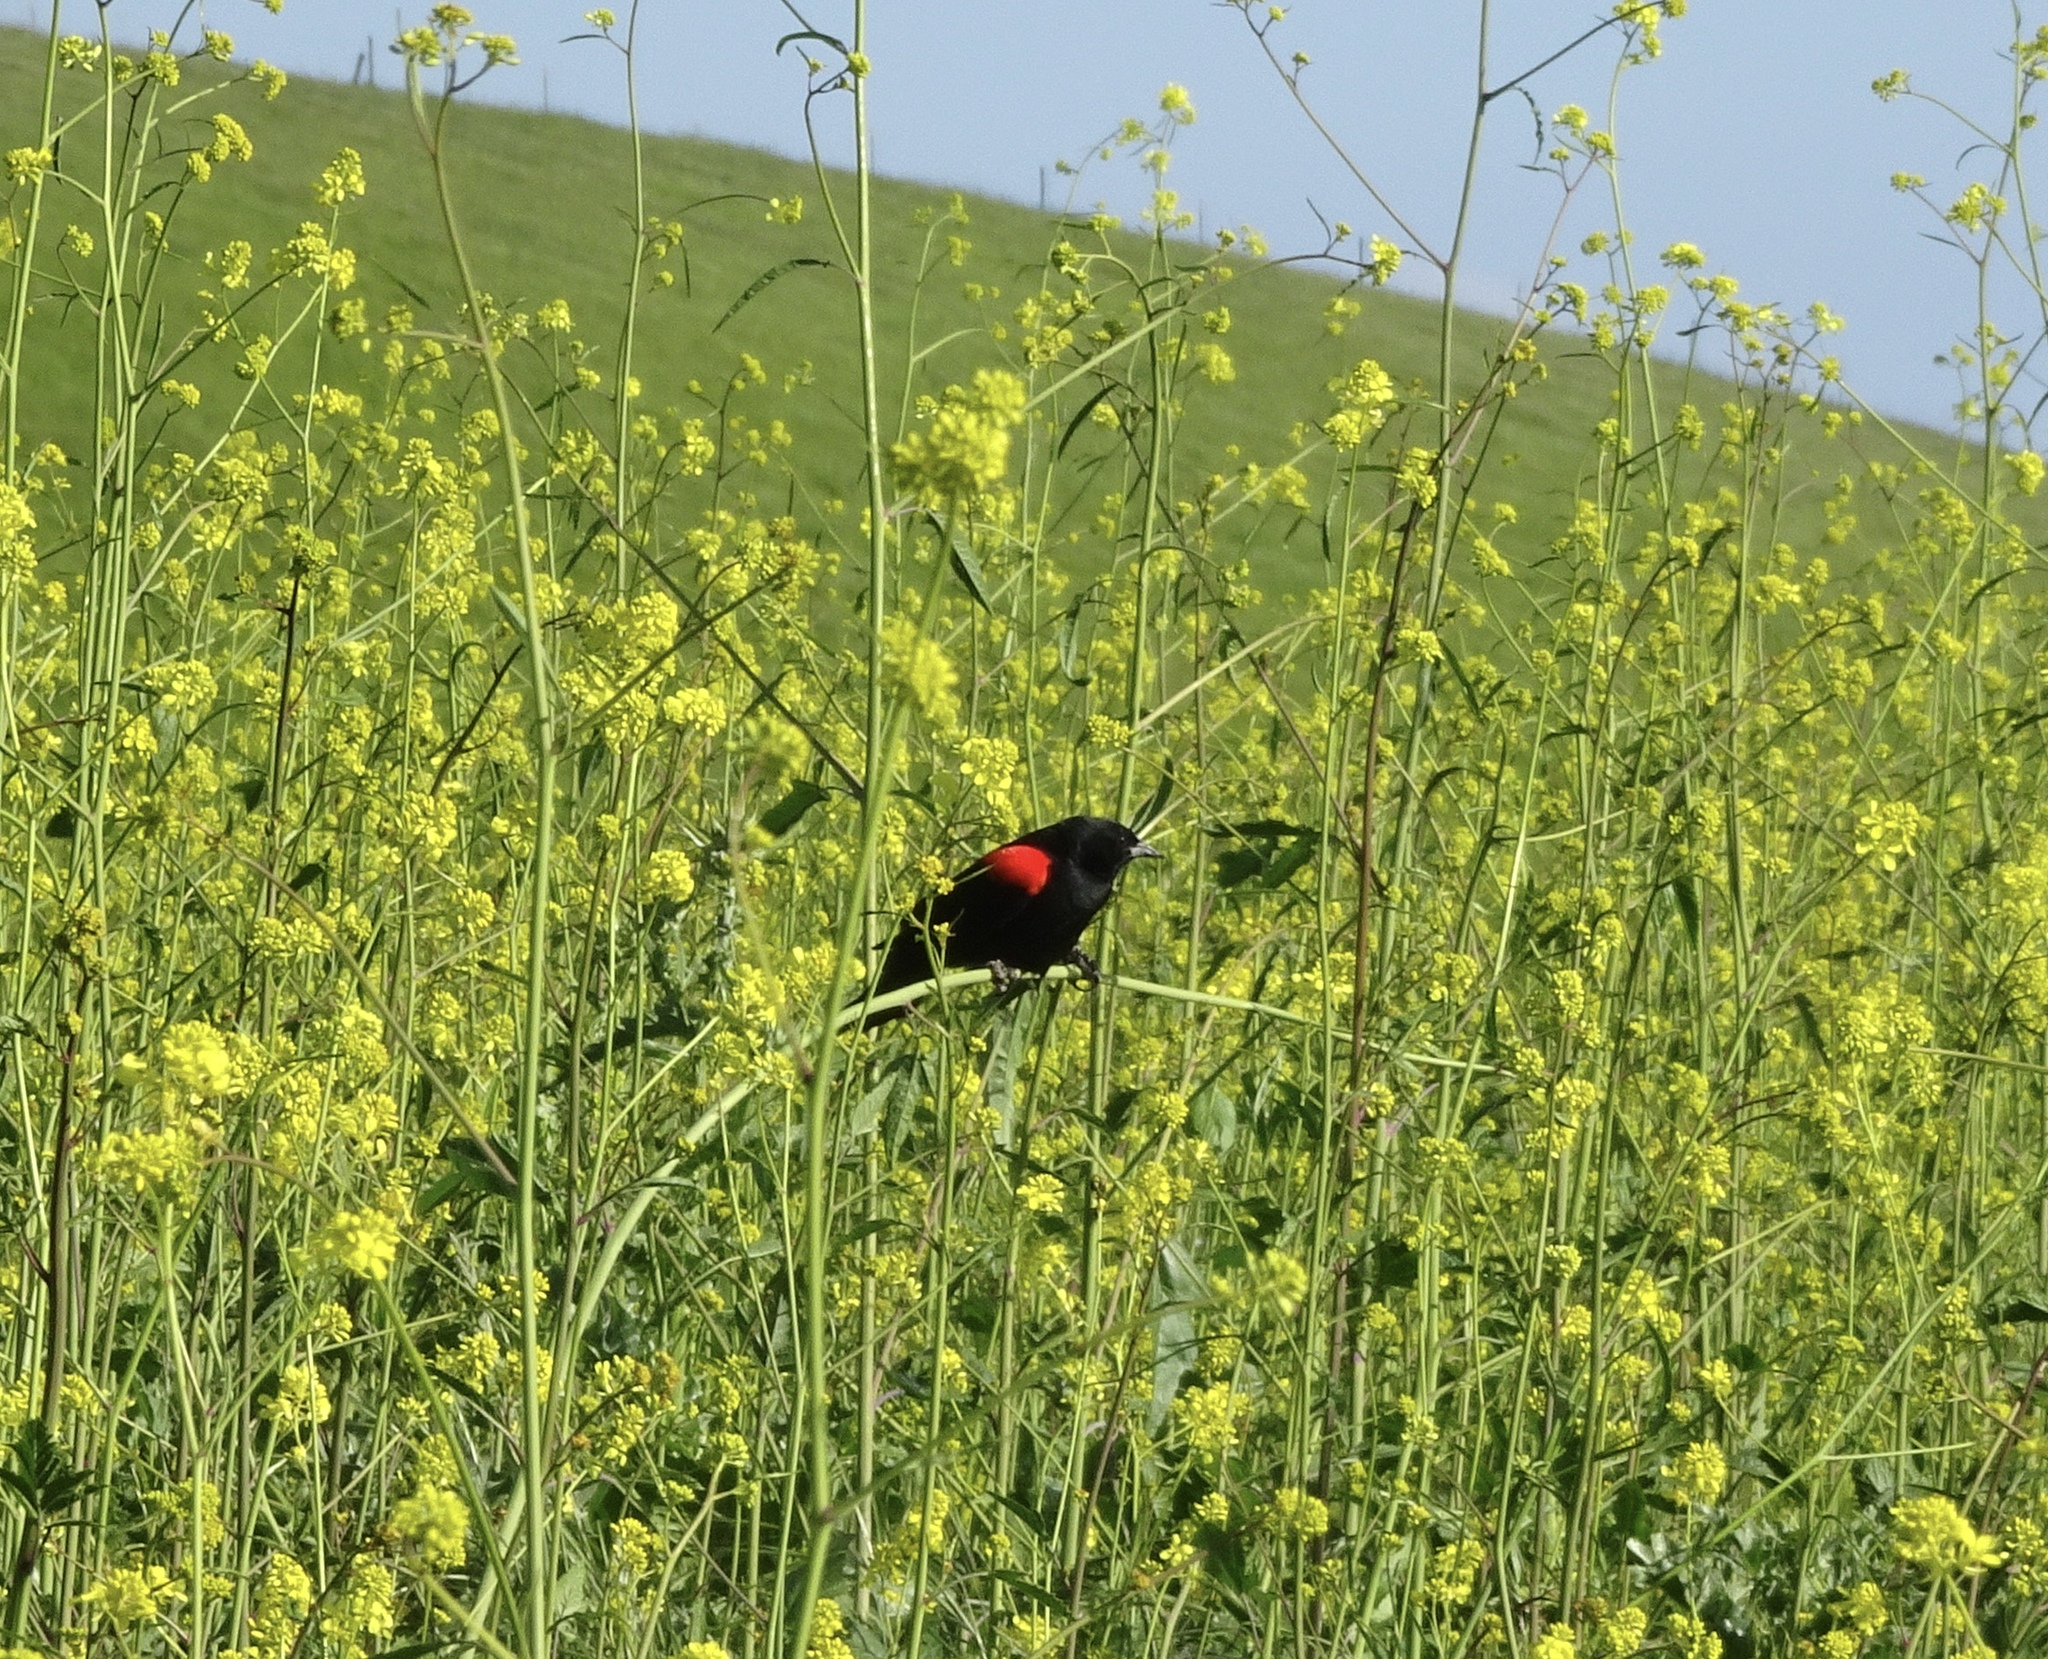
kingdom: Animalia
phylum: Chordata
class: Aves
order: Passeriformes
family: Icteridae
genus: Agelaius
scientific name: Agelaius phoeniceus
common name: Red-winged blackbird
